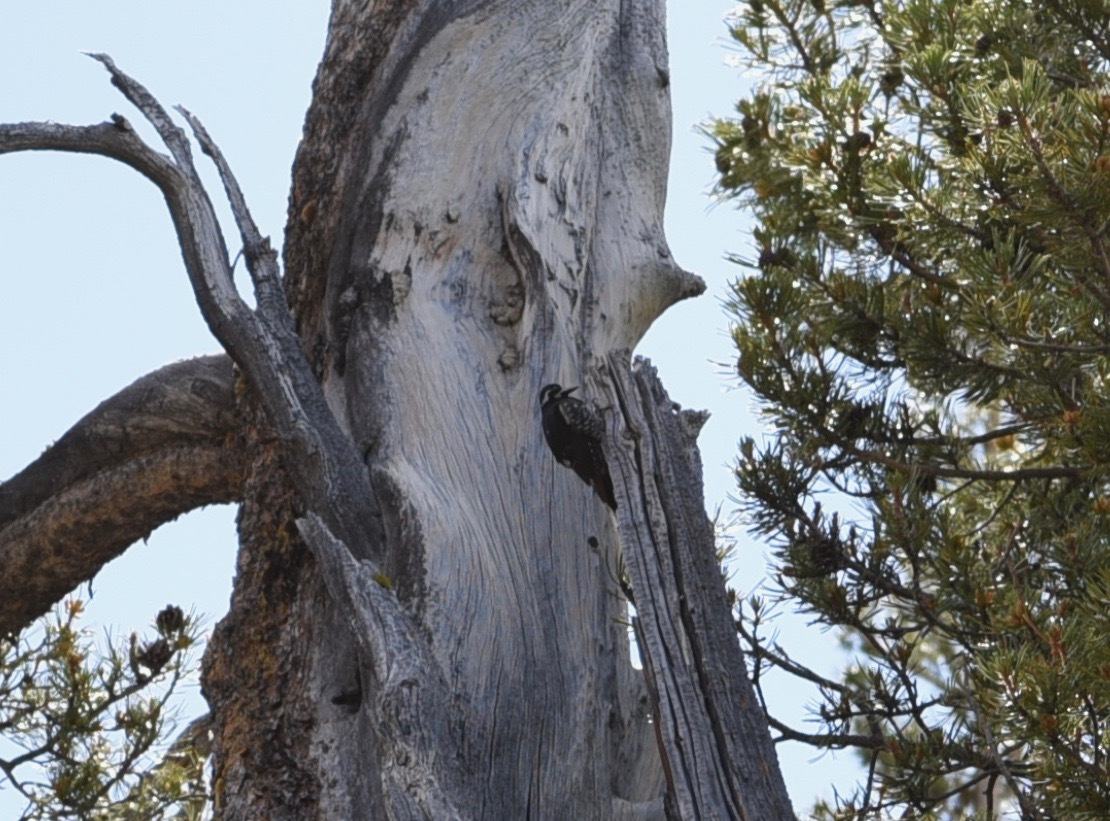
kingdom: Animalia
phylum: Chordata
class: Aves
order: Piciformes
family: Picidae
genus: Sphyrapicus
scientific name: Sphyrapicus thyroideus
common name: Williamson's sapsucker
